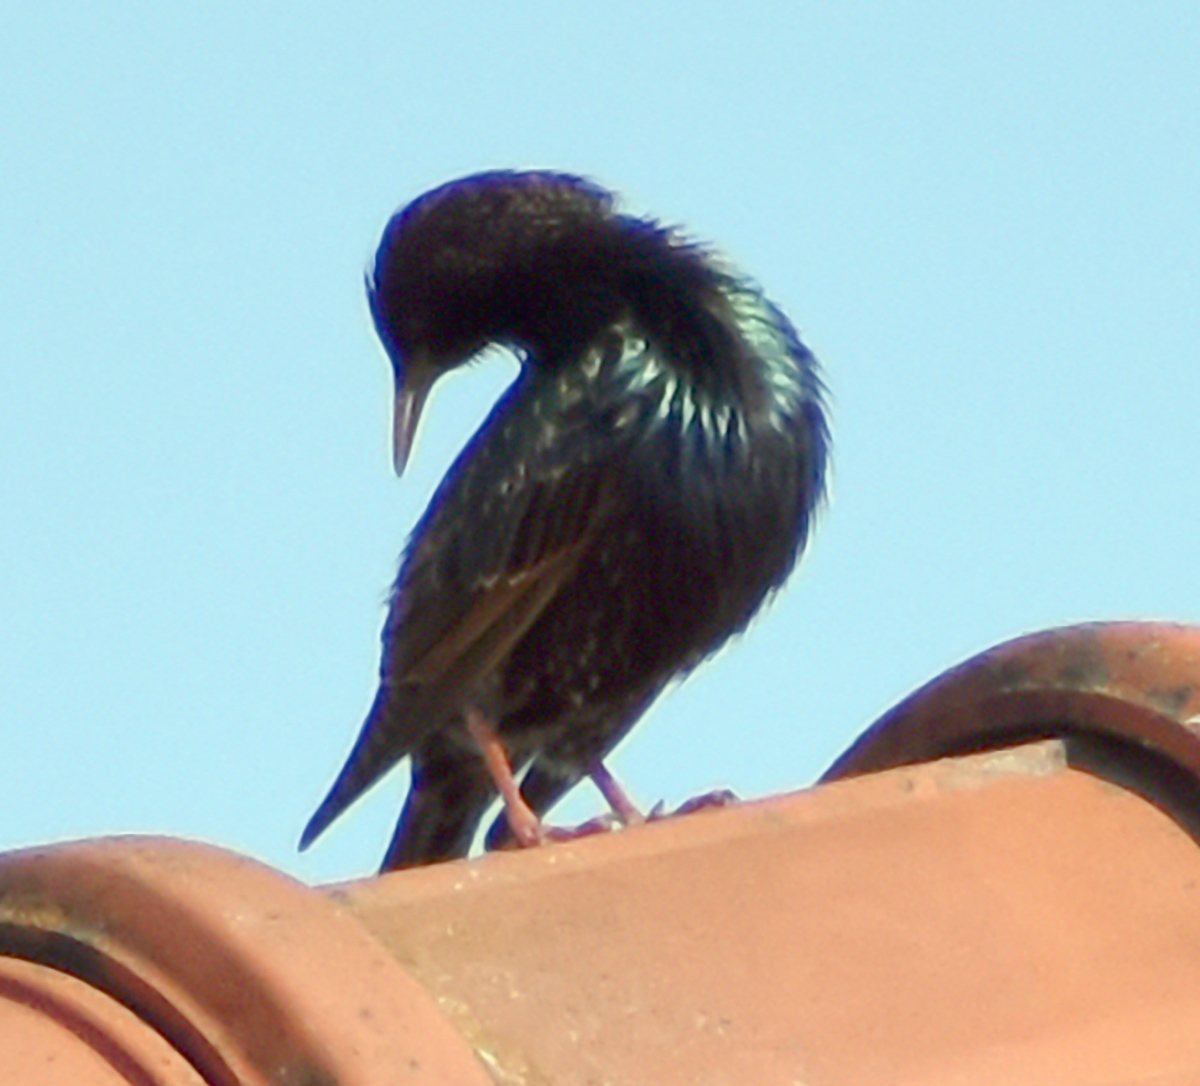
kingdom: Animalia
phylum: Chordata
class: Aves
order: Passeriformes
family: Sturnidae
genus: Sturnus
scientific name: Sturnus vulgaris
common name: Common starling
